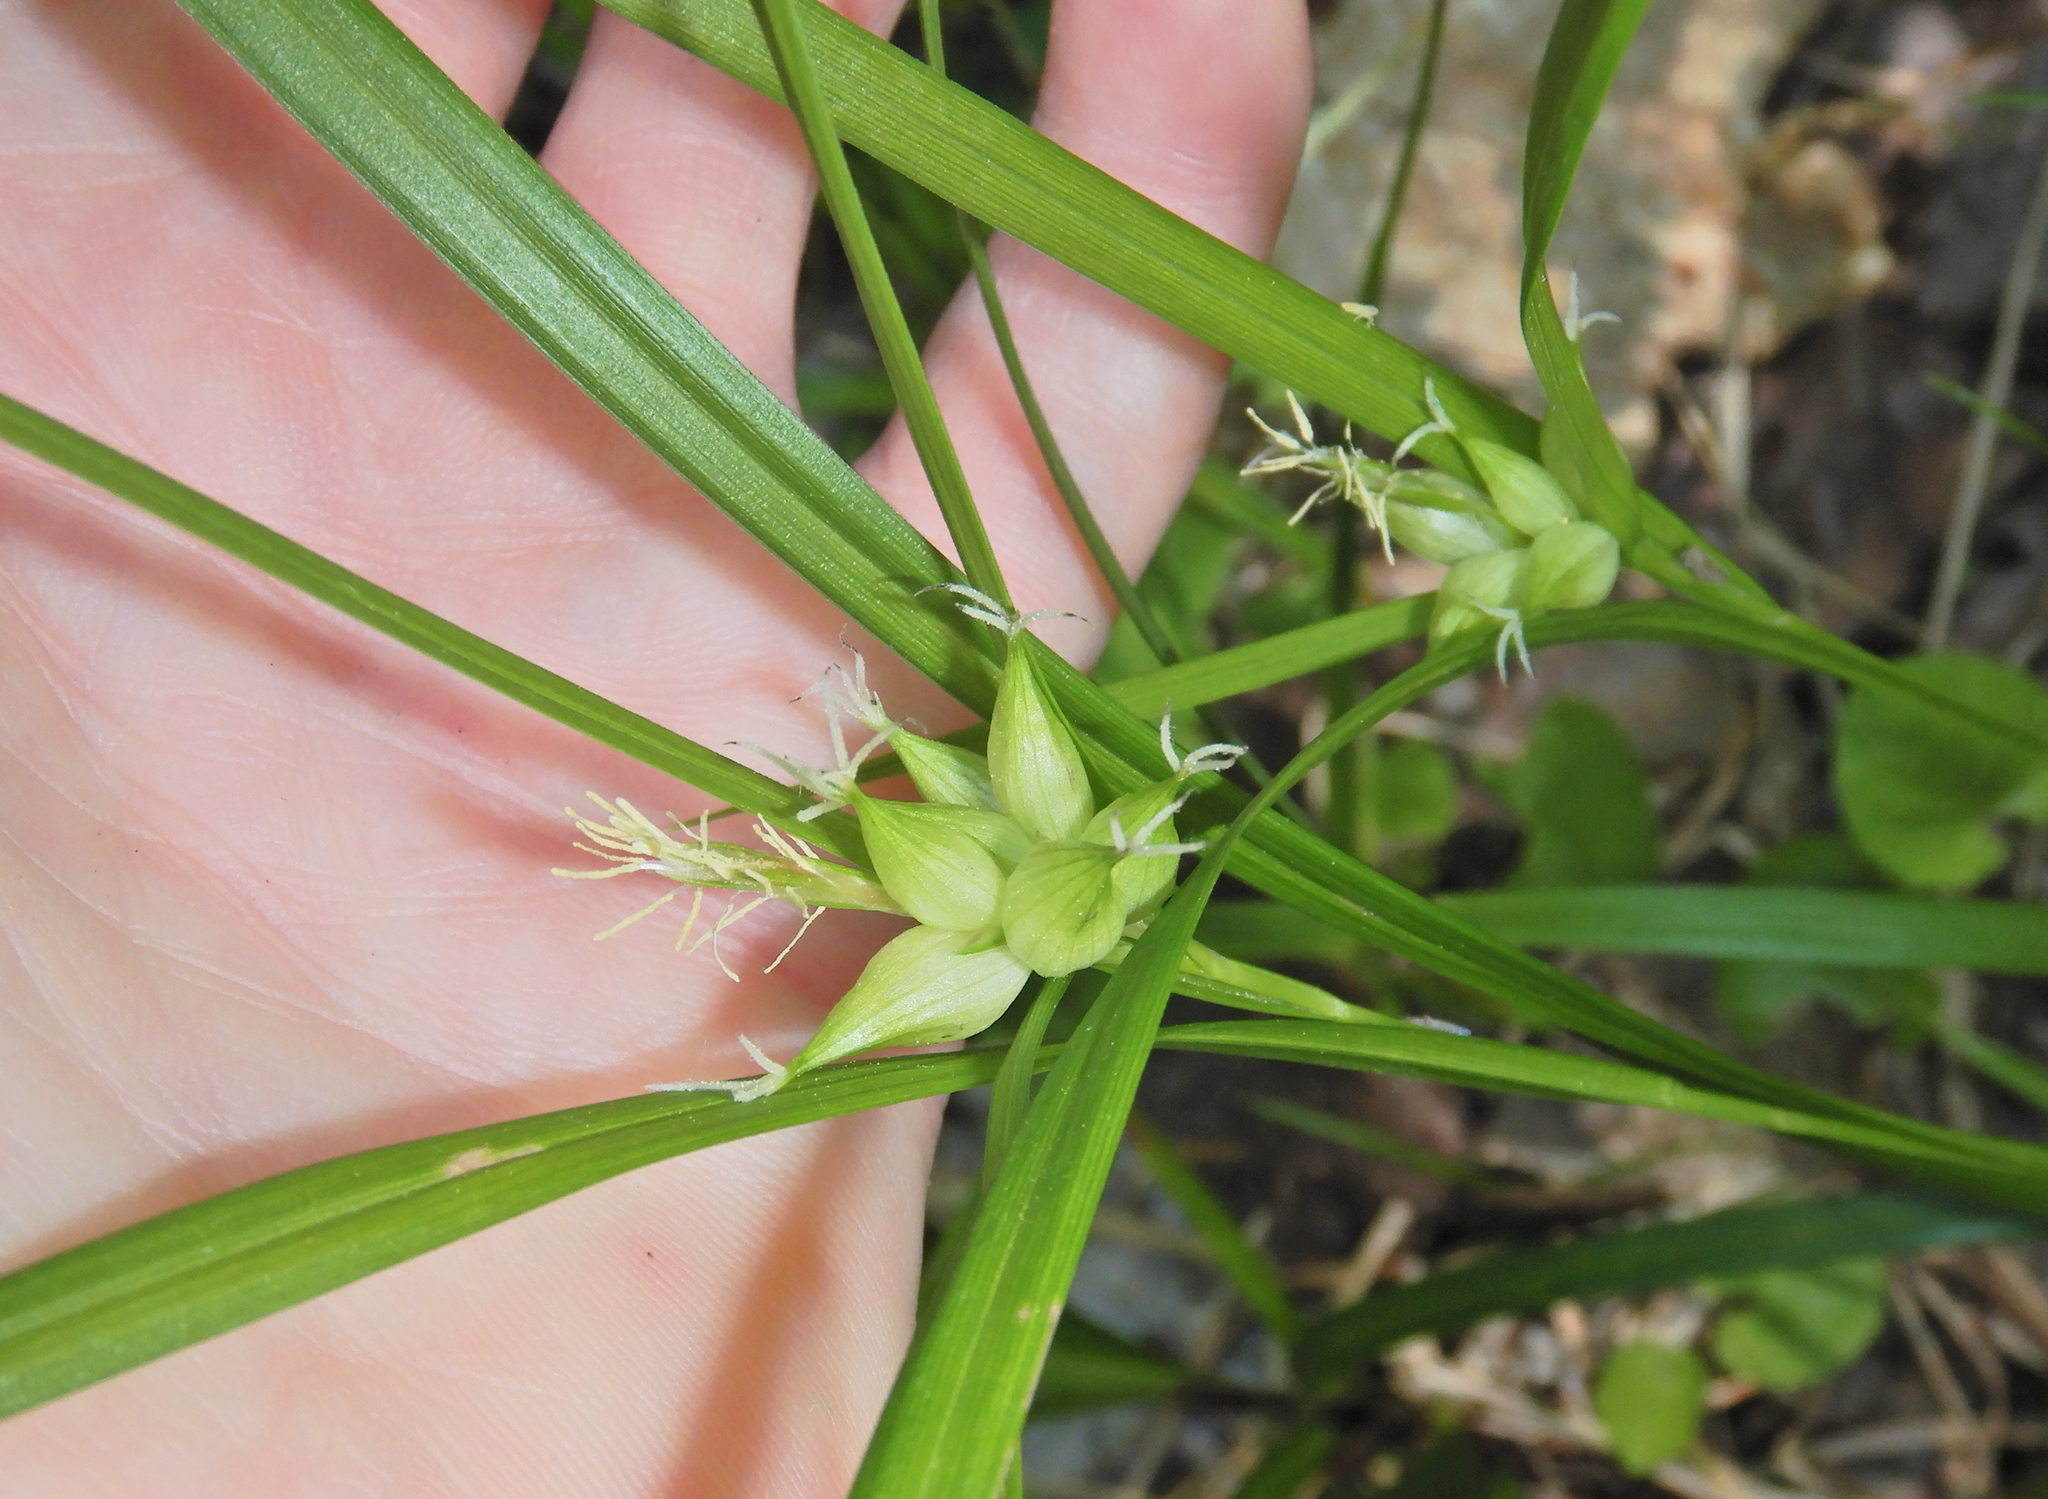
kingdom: Plantae
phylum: Tracheophyta
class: Liliopsida
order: Poales
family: Cyperaceae
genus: Carex
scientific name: Carex intumescens
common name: Greater bladder sedge
